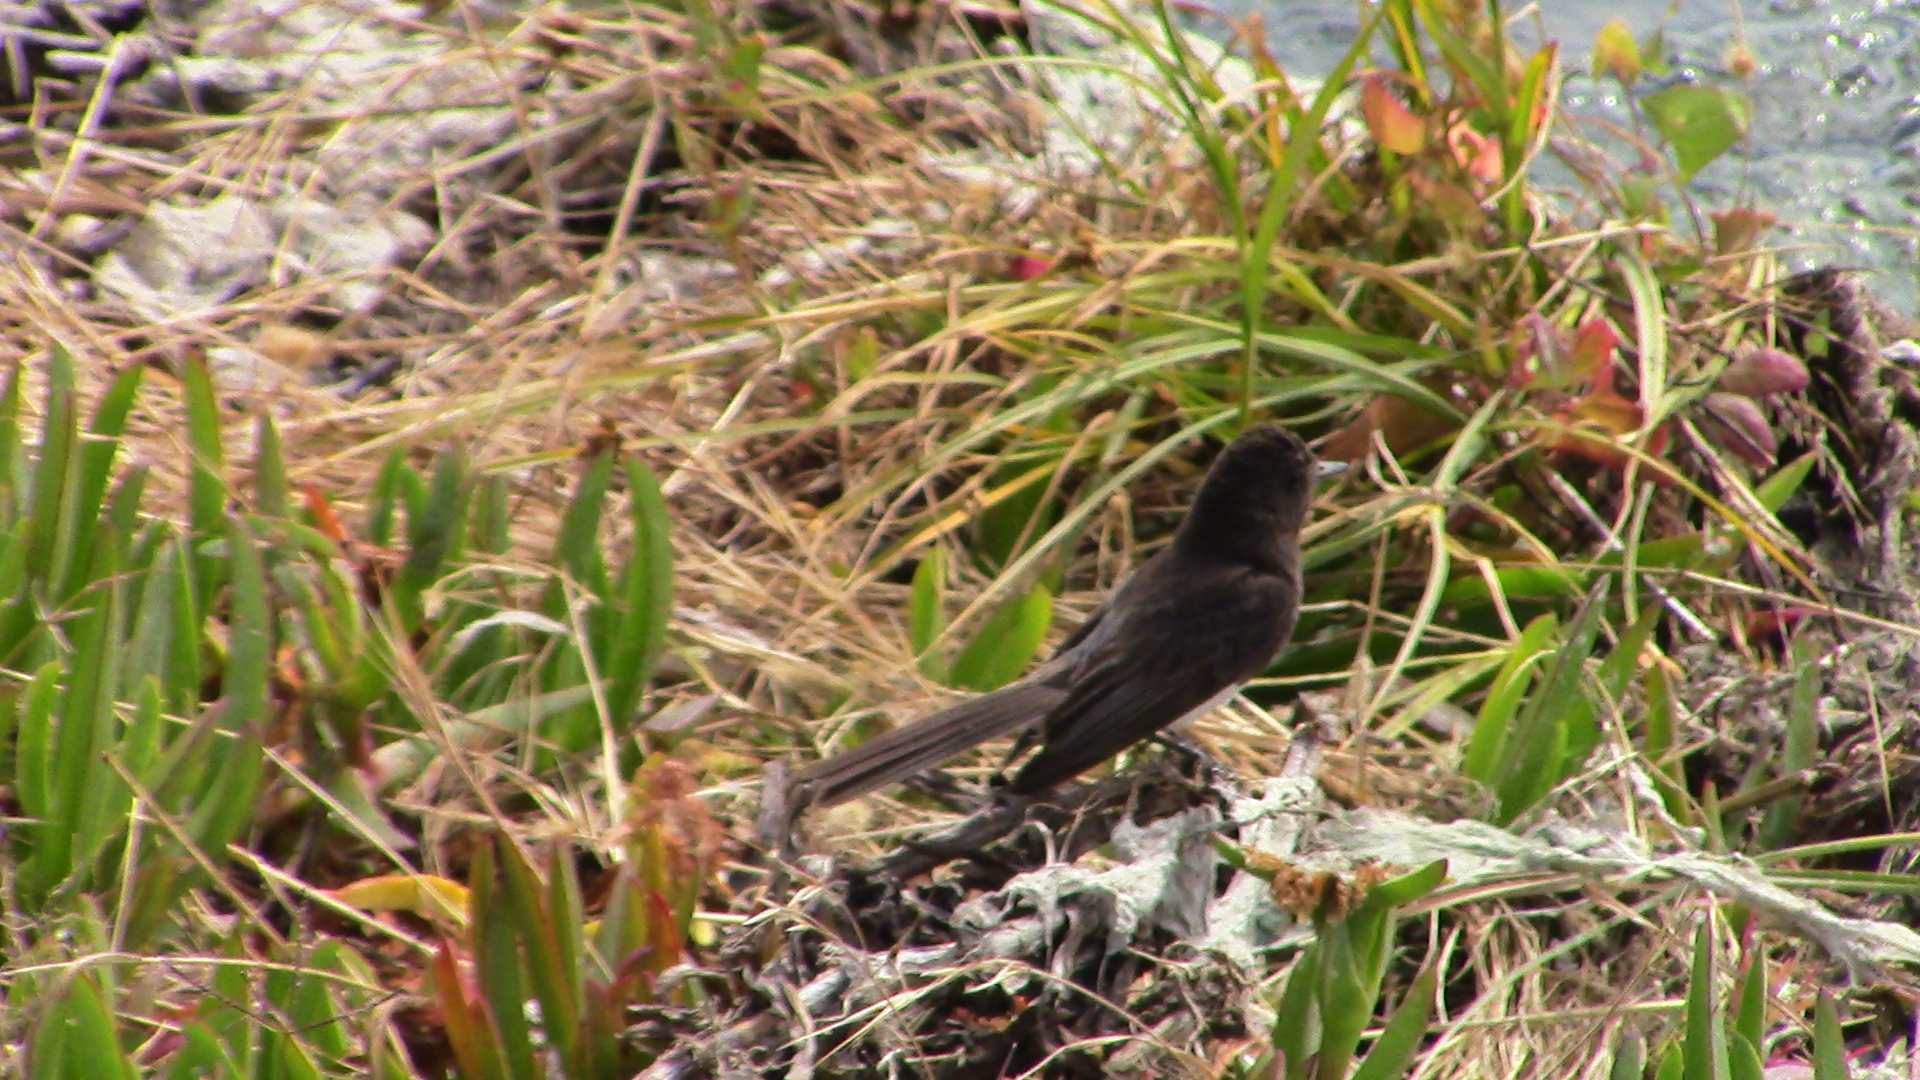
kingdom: Animalia
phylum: Chordata
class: Aves
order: Passeriformes
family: Tyrannidae
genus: Sayornis
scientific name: Sayornis nigricans
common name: Black phoebe
